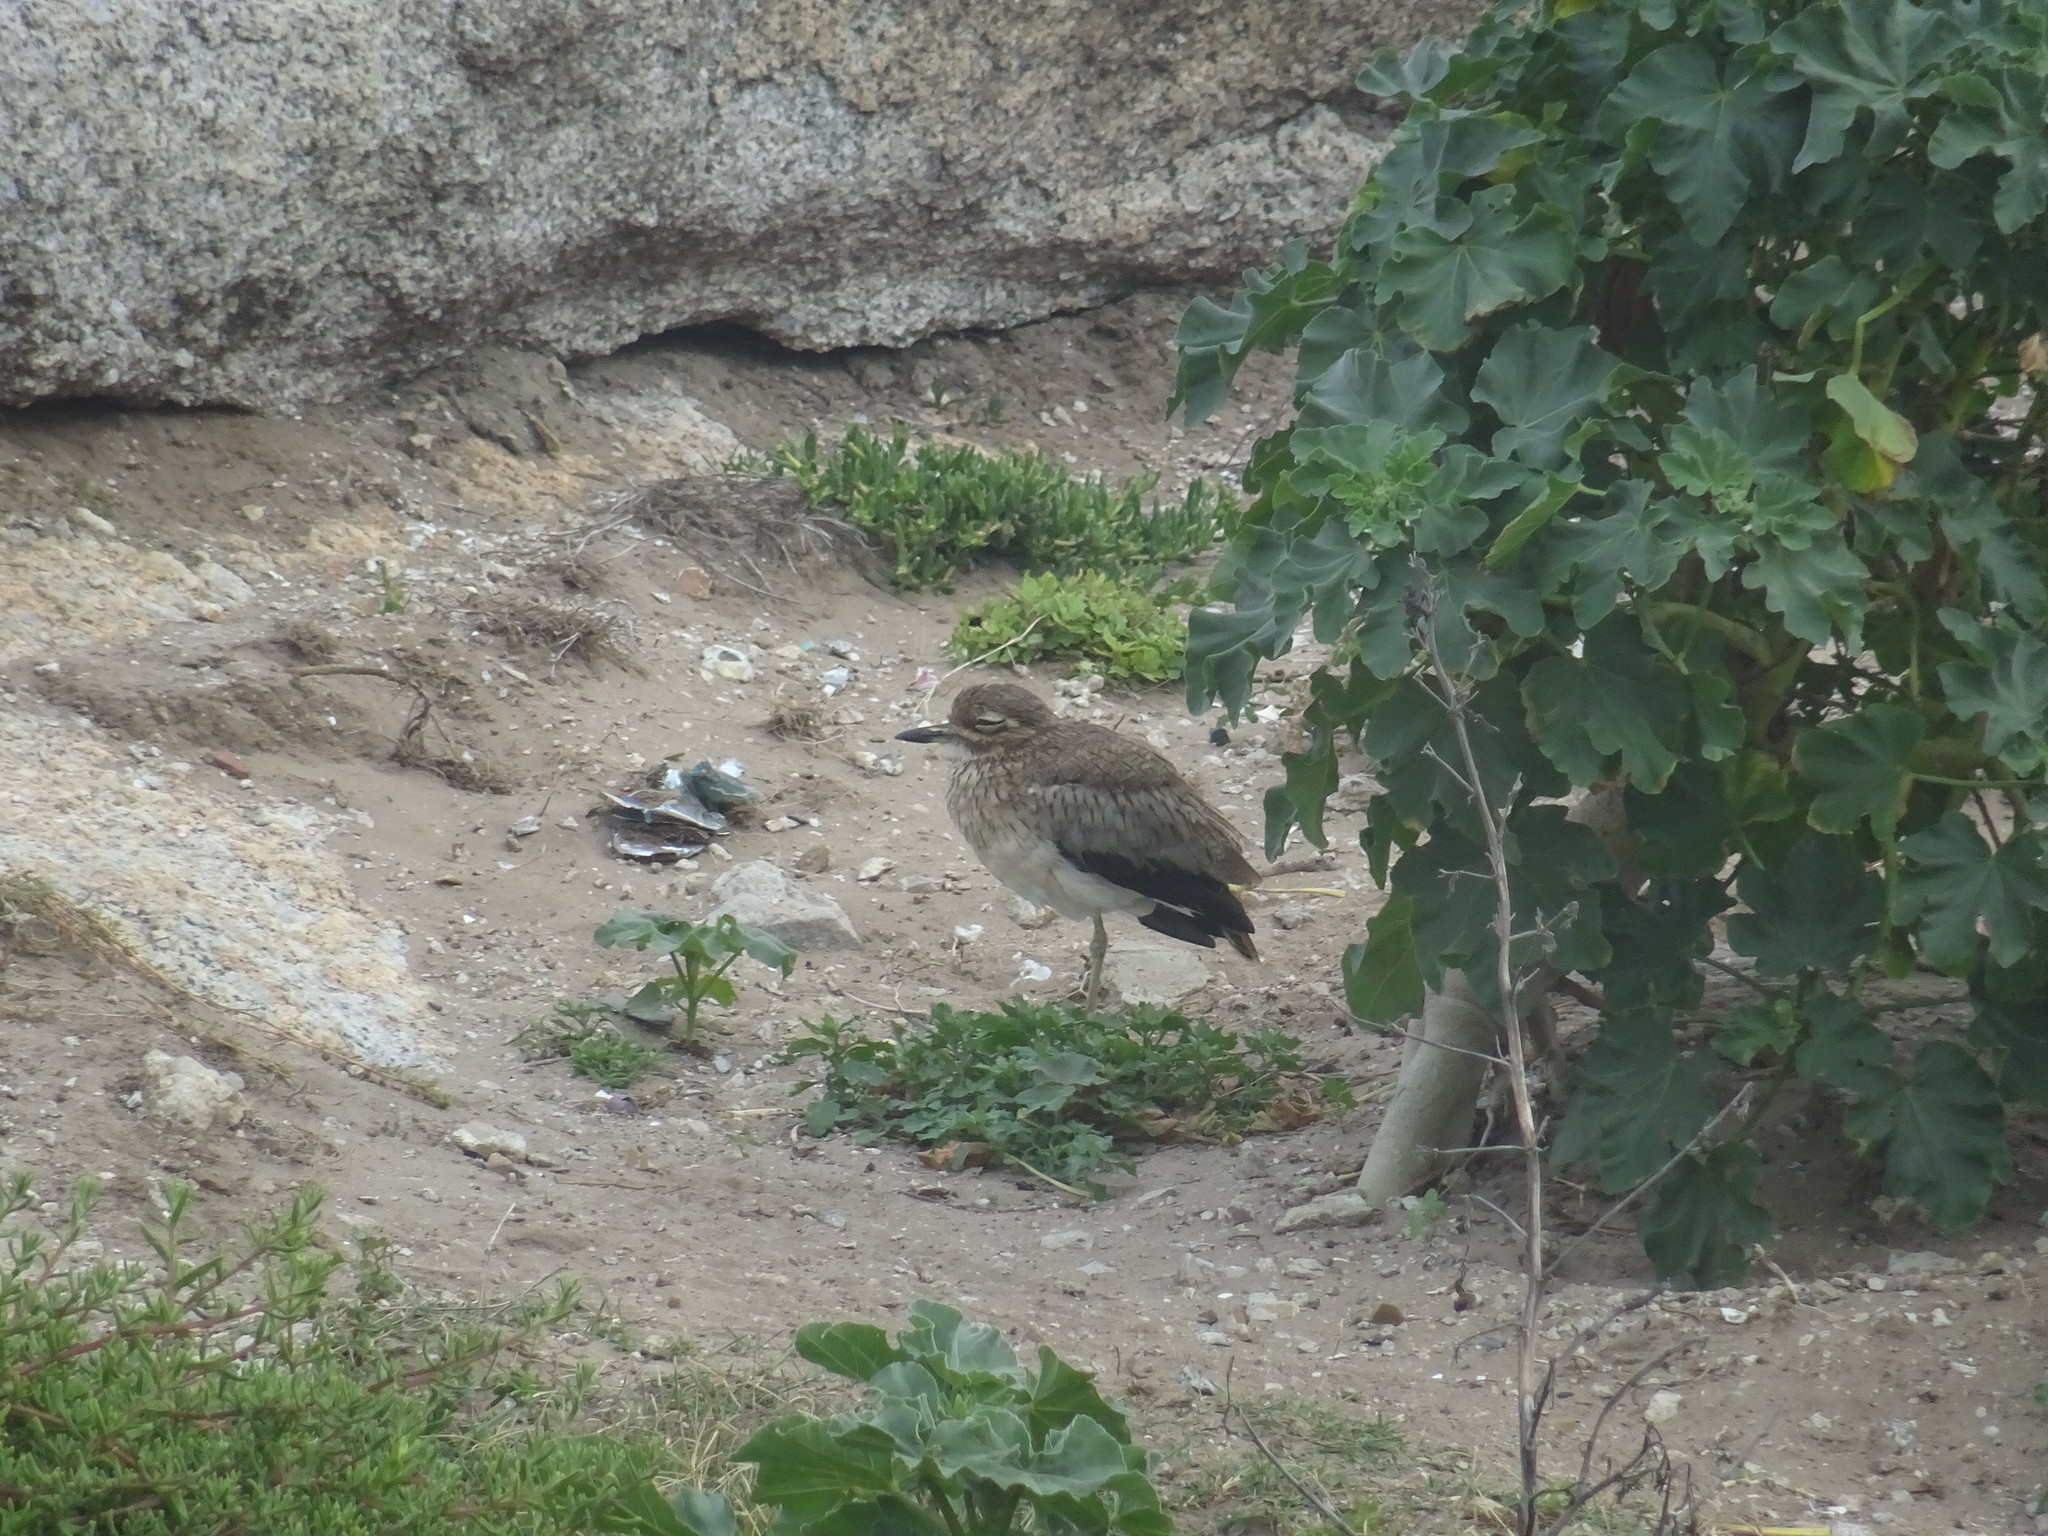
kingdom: Animalia
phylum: Chordata
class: Aves
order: Charadriiformes
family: Burhinidae
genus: Burhinus
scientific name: Burhinus vermiculatus
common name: Water thick-knee
